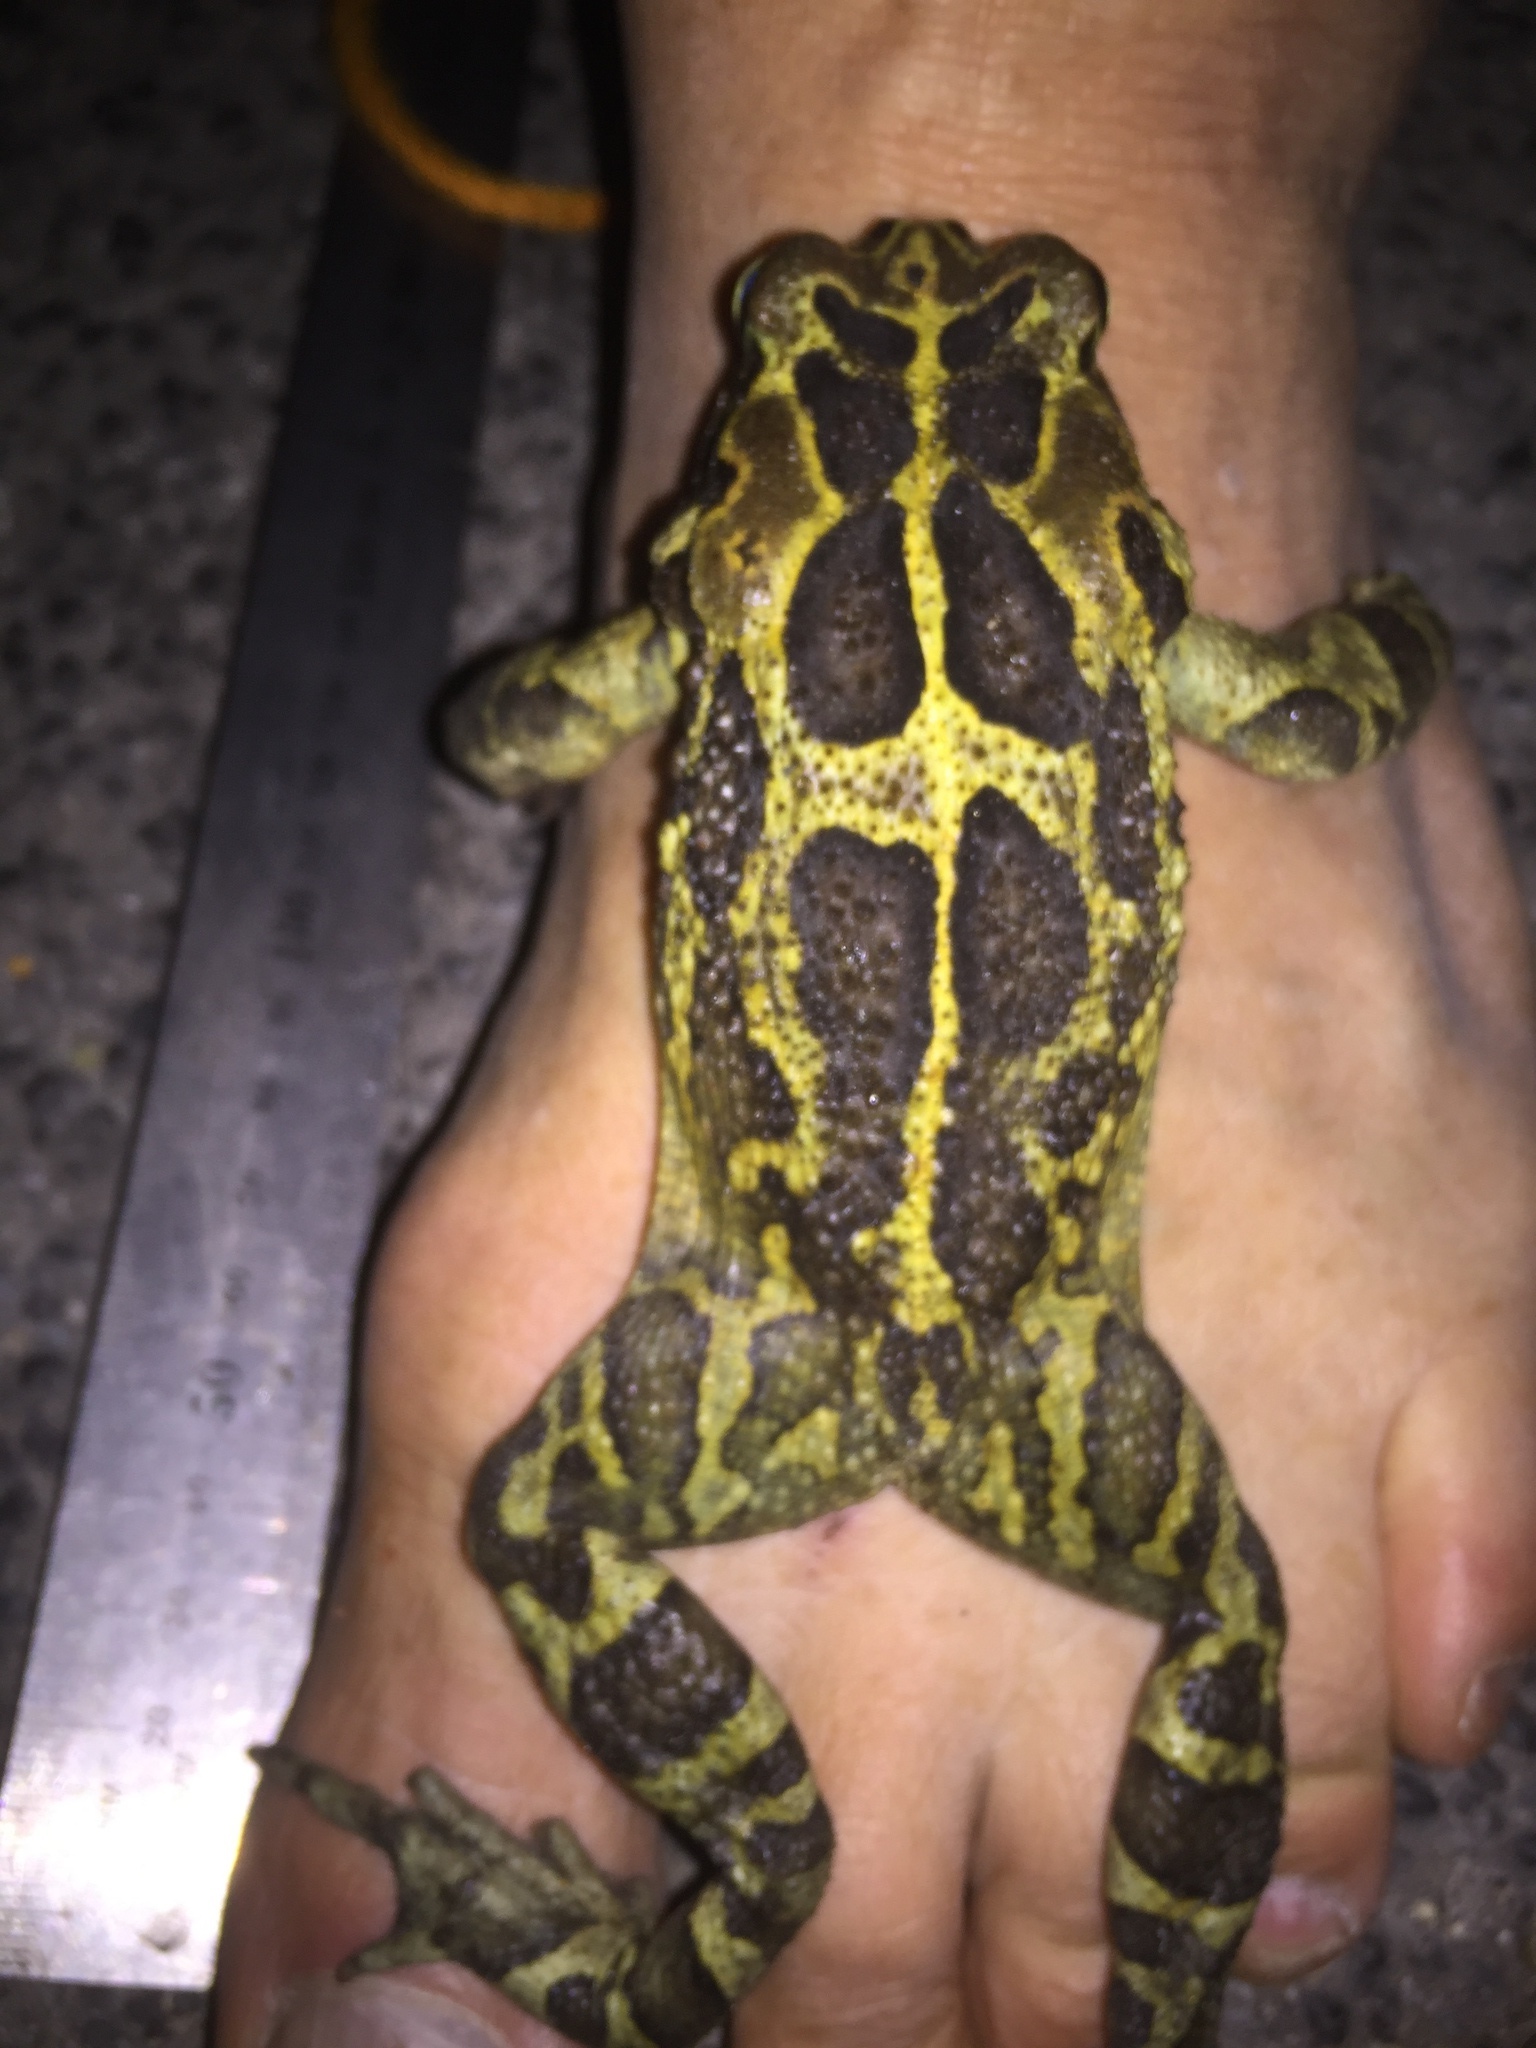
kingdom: Animalia
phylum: Chordata
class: Amphibia
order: Anura
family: Bufonidae
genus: Sclerophrys
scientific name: Sclerophrys pantherina
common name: Panther toad
